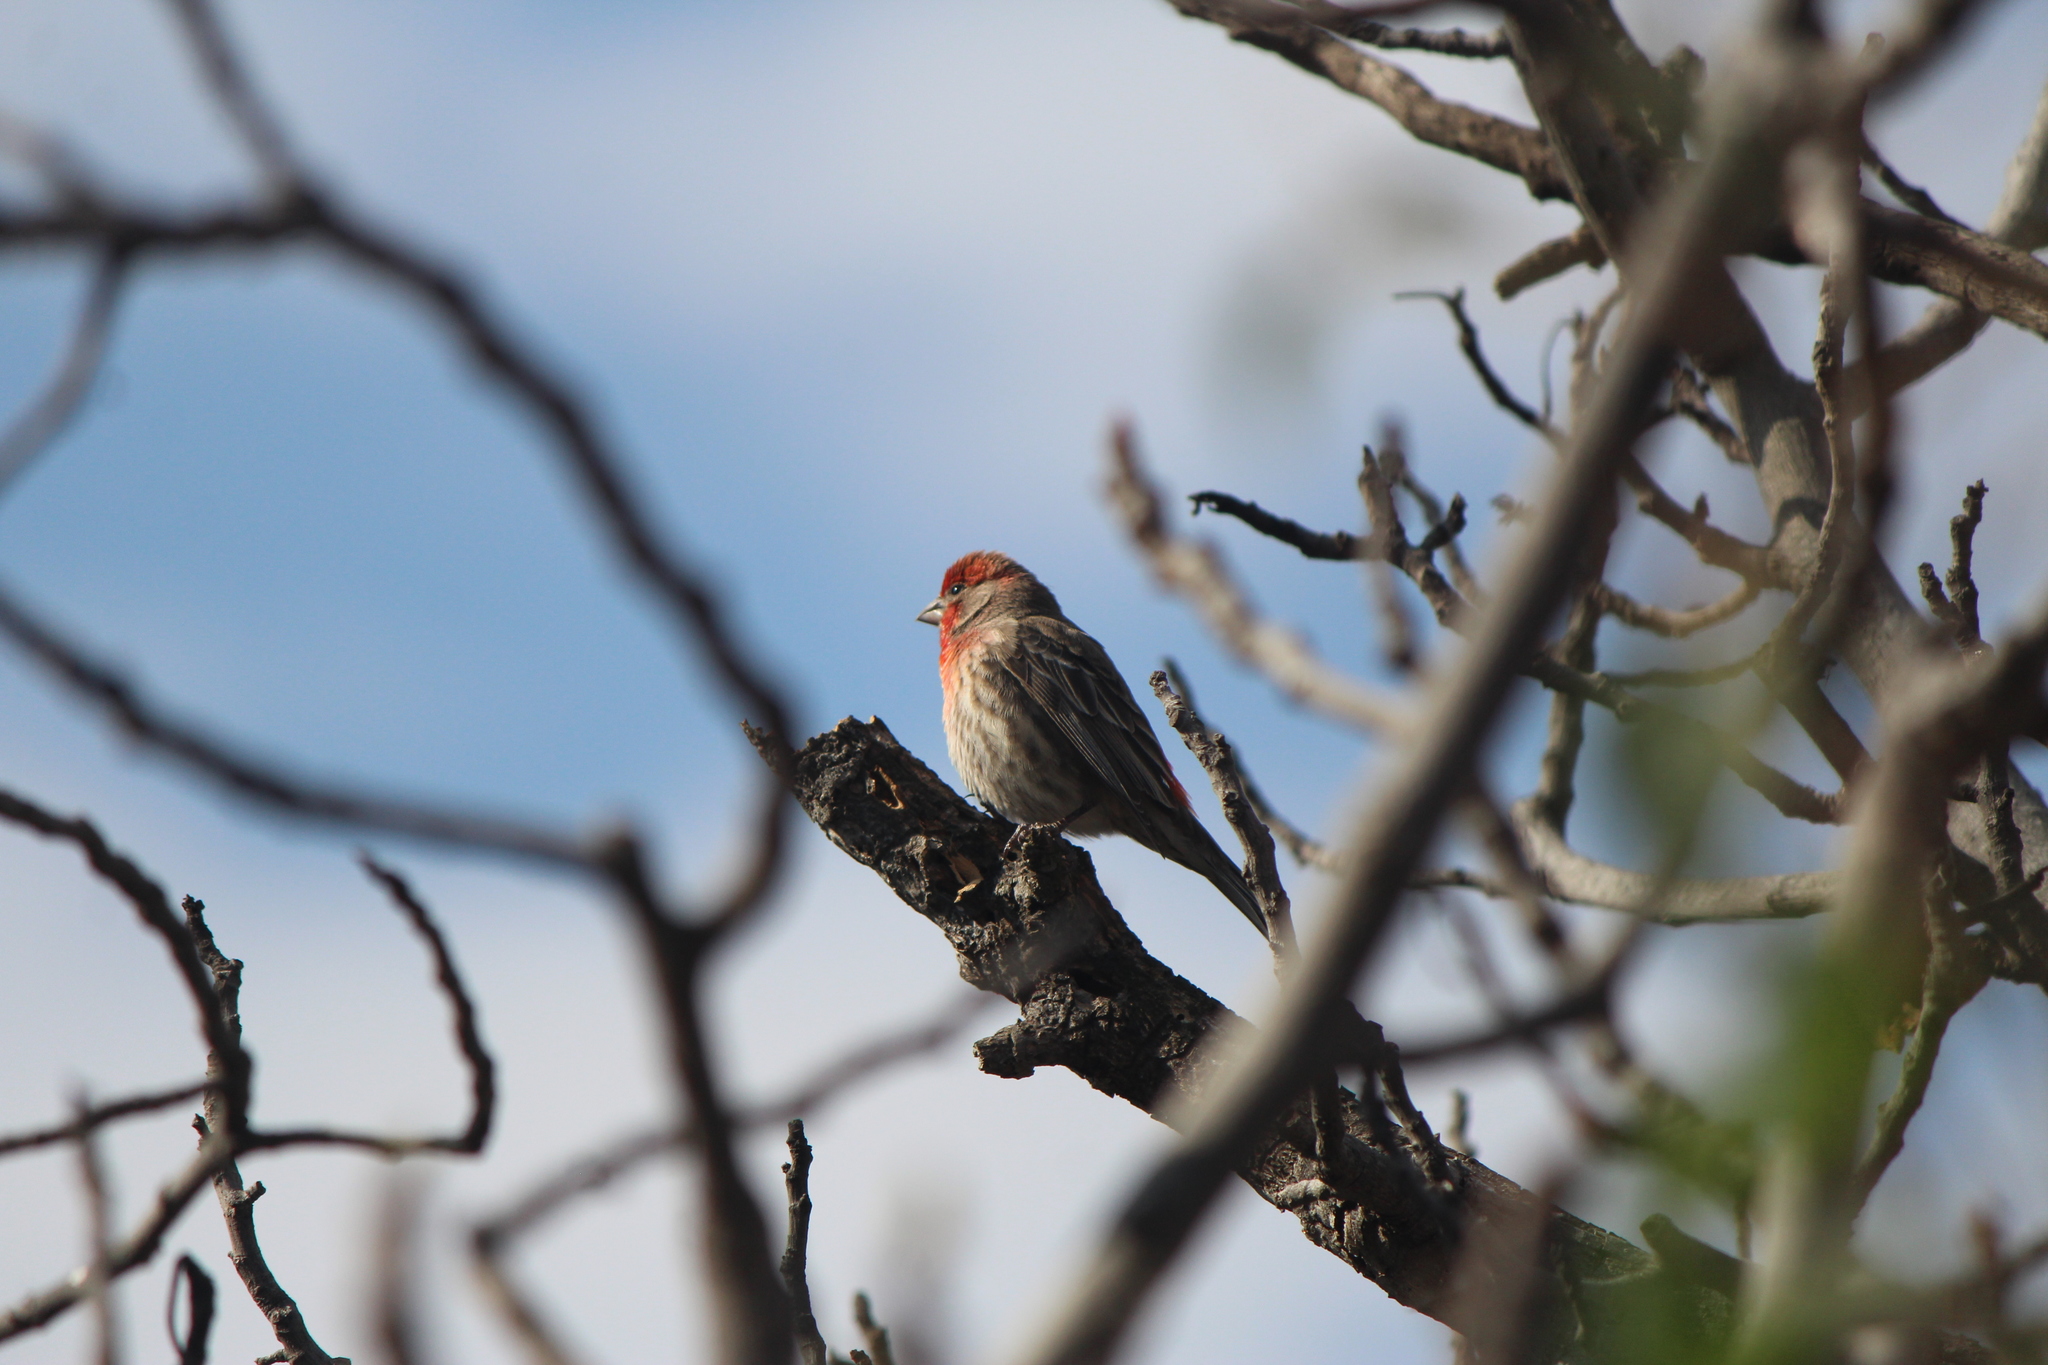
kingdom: Animalia
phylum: Chordata
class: Aves
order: Passeriformes
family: Fringillidae
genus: Haemorhous
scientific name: Haemorhous mexicanus
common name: House finch
